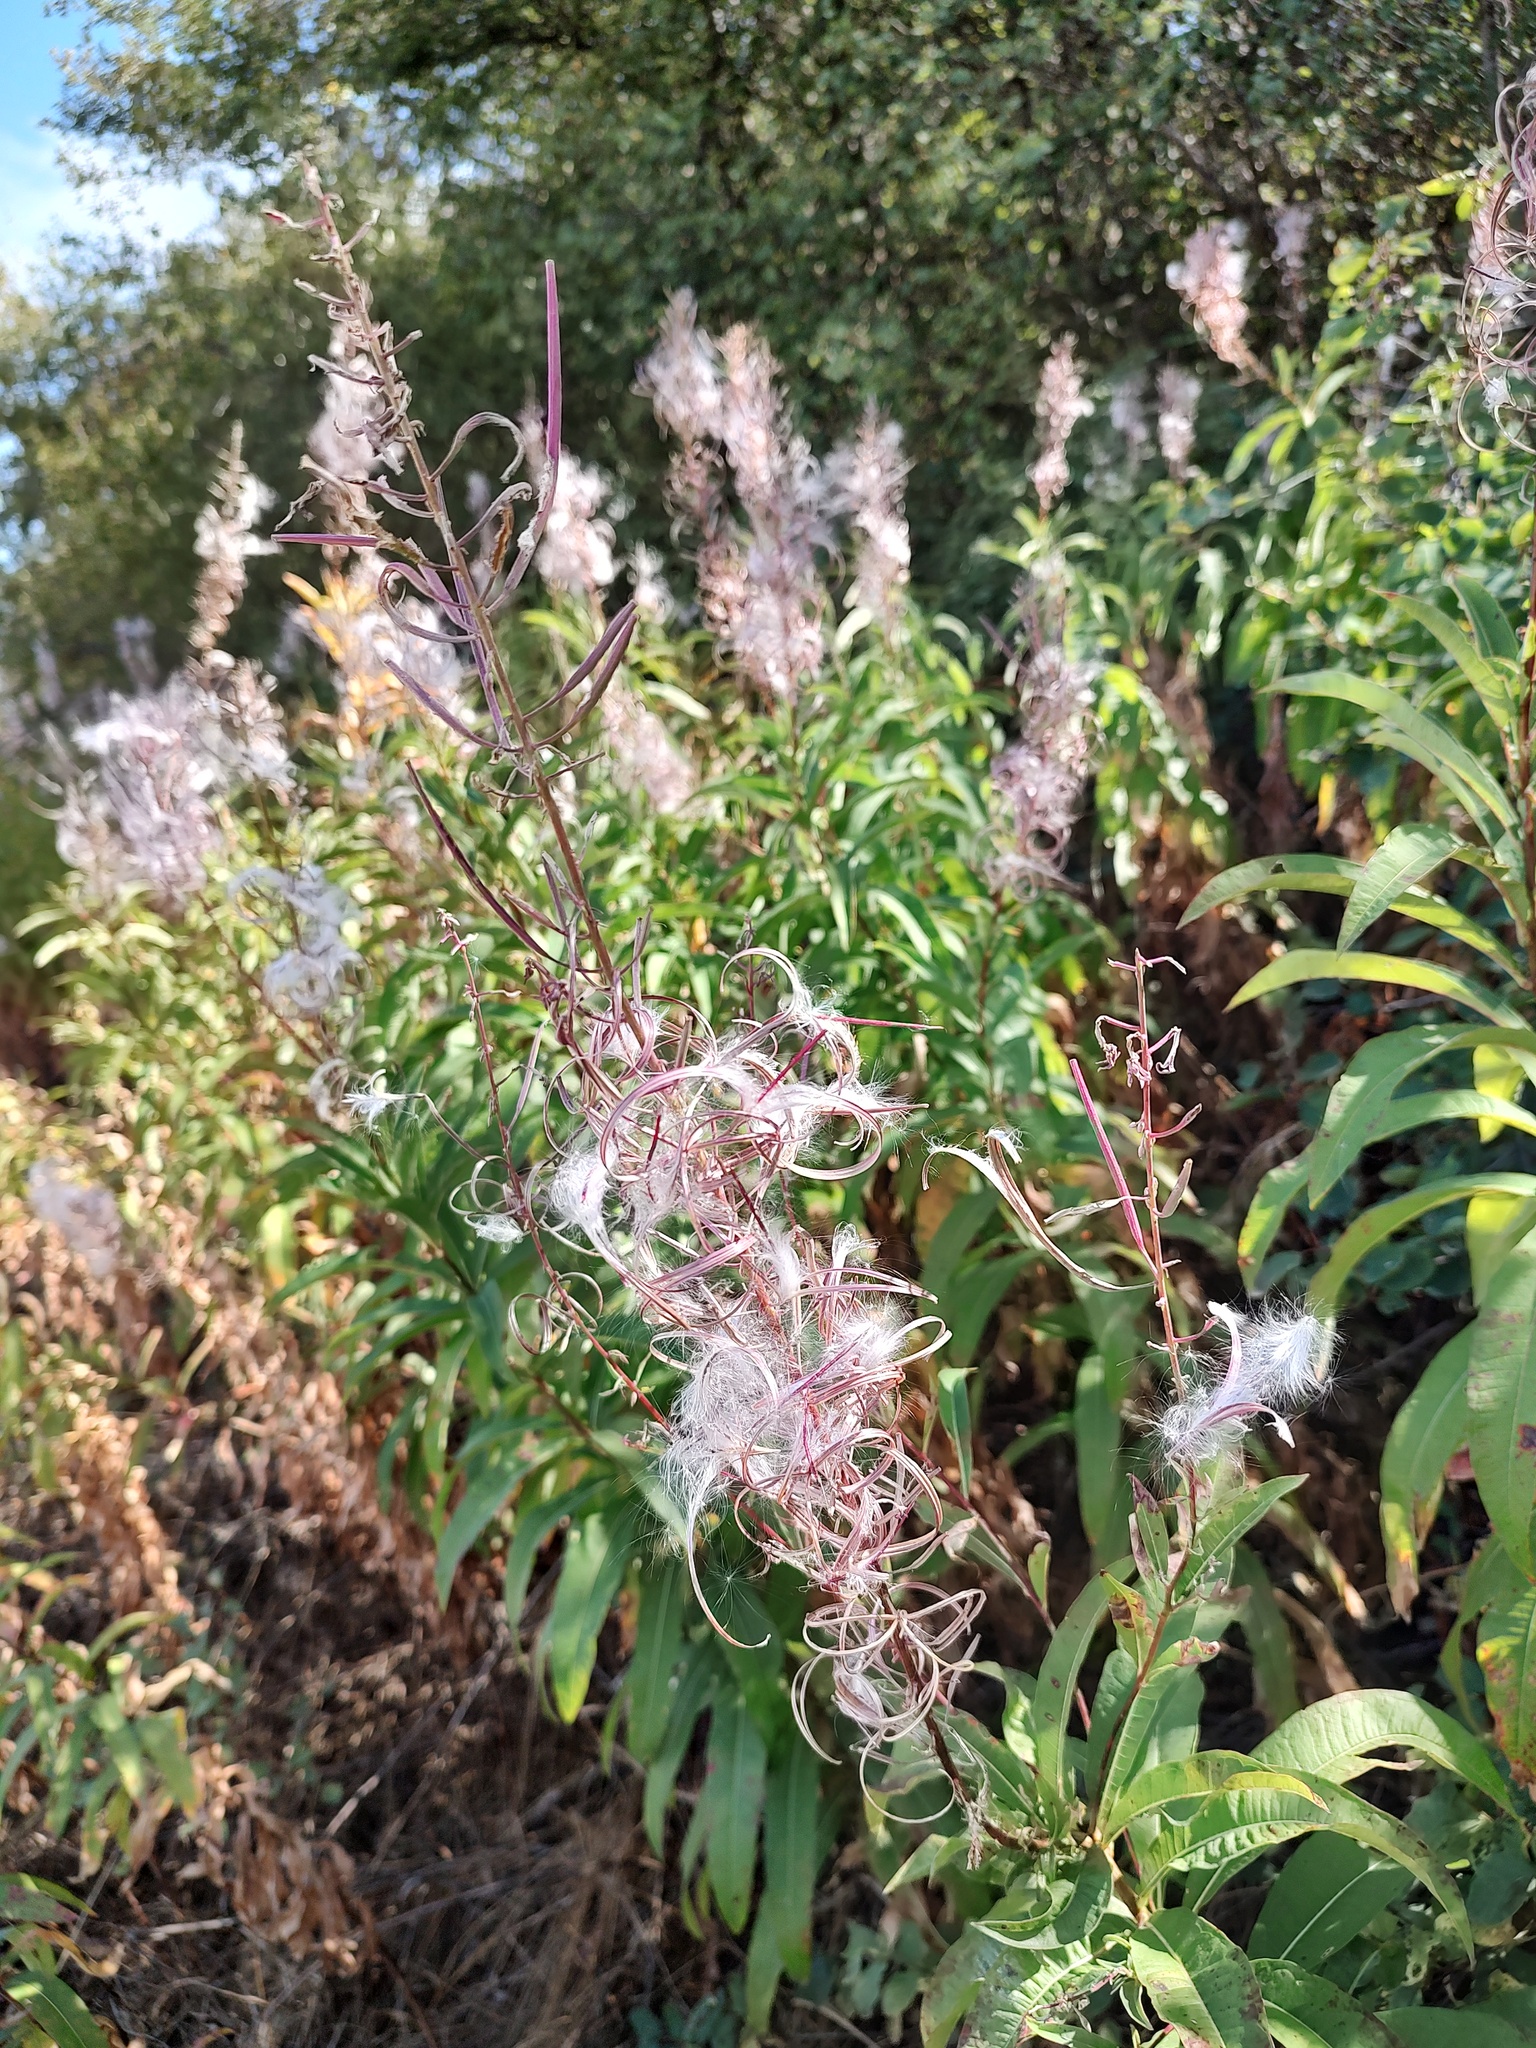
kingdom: Plantae
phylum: Tracheophyta
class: Magnoliopsida
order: Myrtales
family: Onagraceae
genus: Chamaenerion
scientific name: Chamaenerion angustifolium
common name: Fireweed
